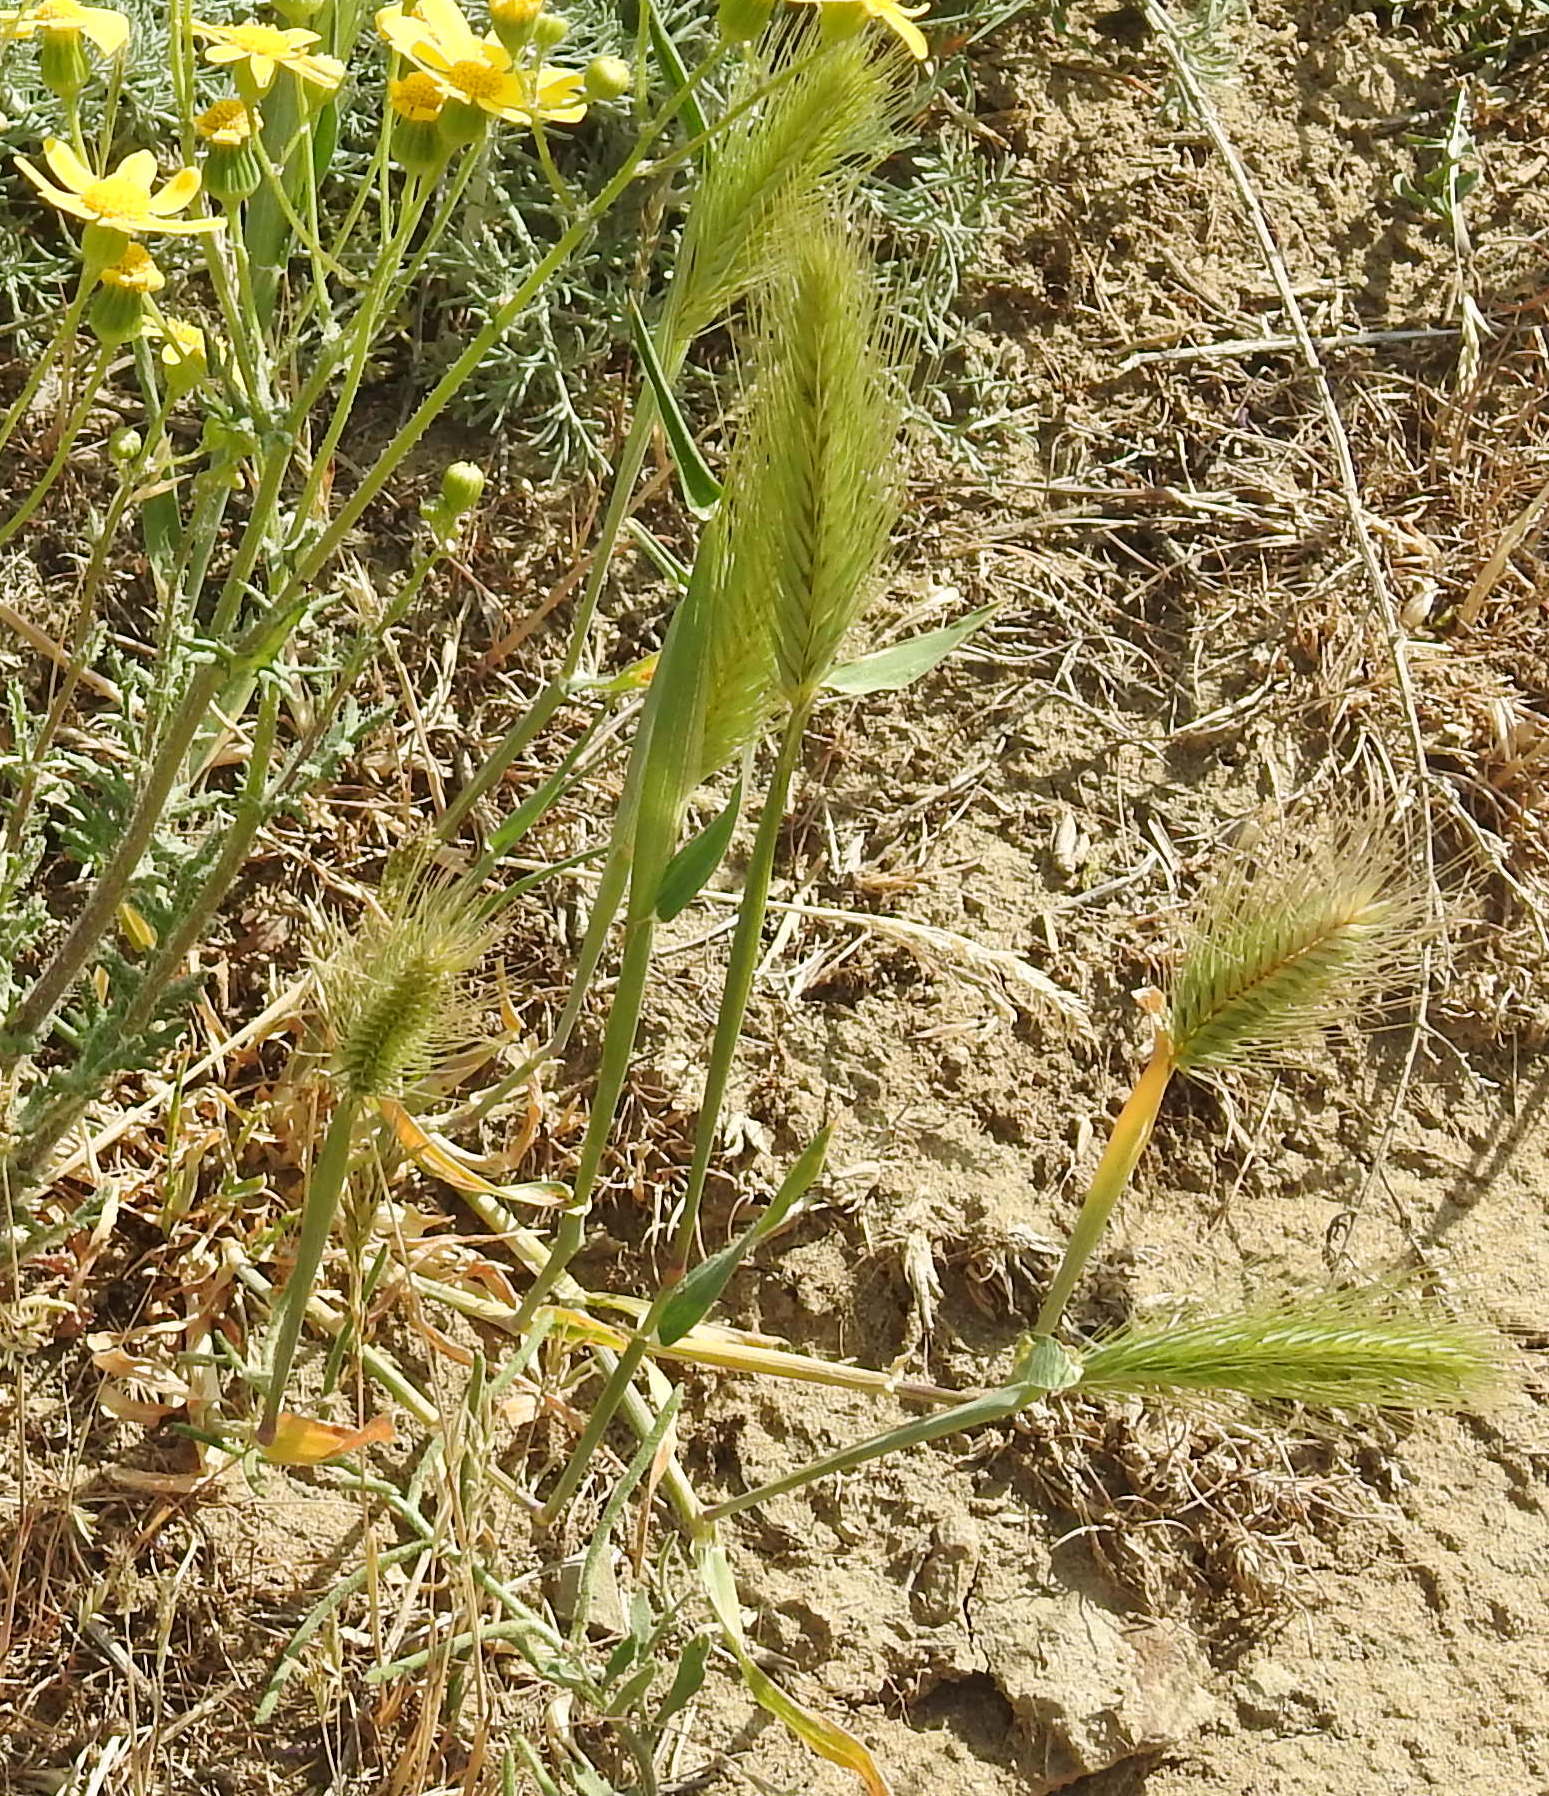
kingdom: Plantae
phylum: Tracheophyta
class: Liliopsida
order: Poales
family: Poaceae
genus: Hordeum
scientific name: Hordeum murinum
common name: Wall barley
